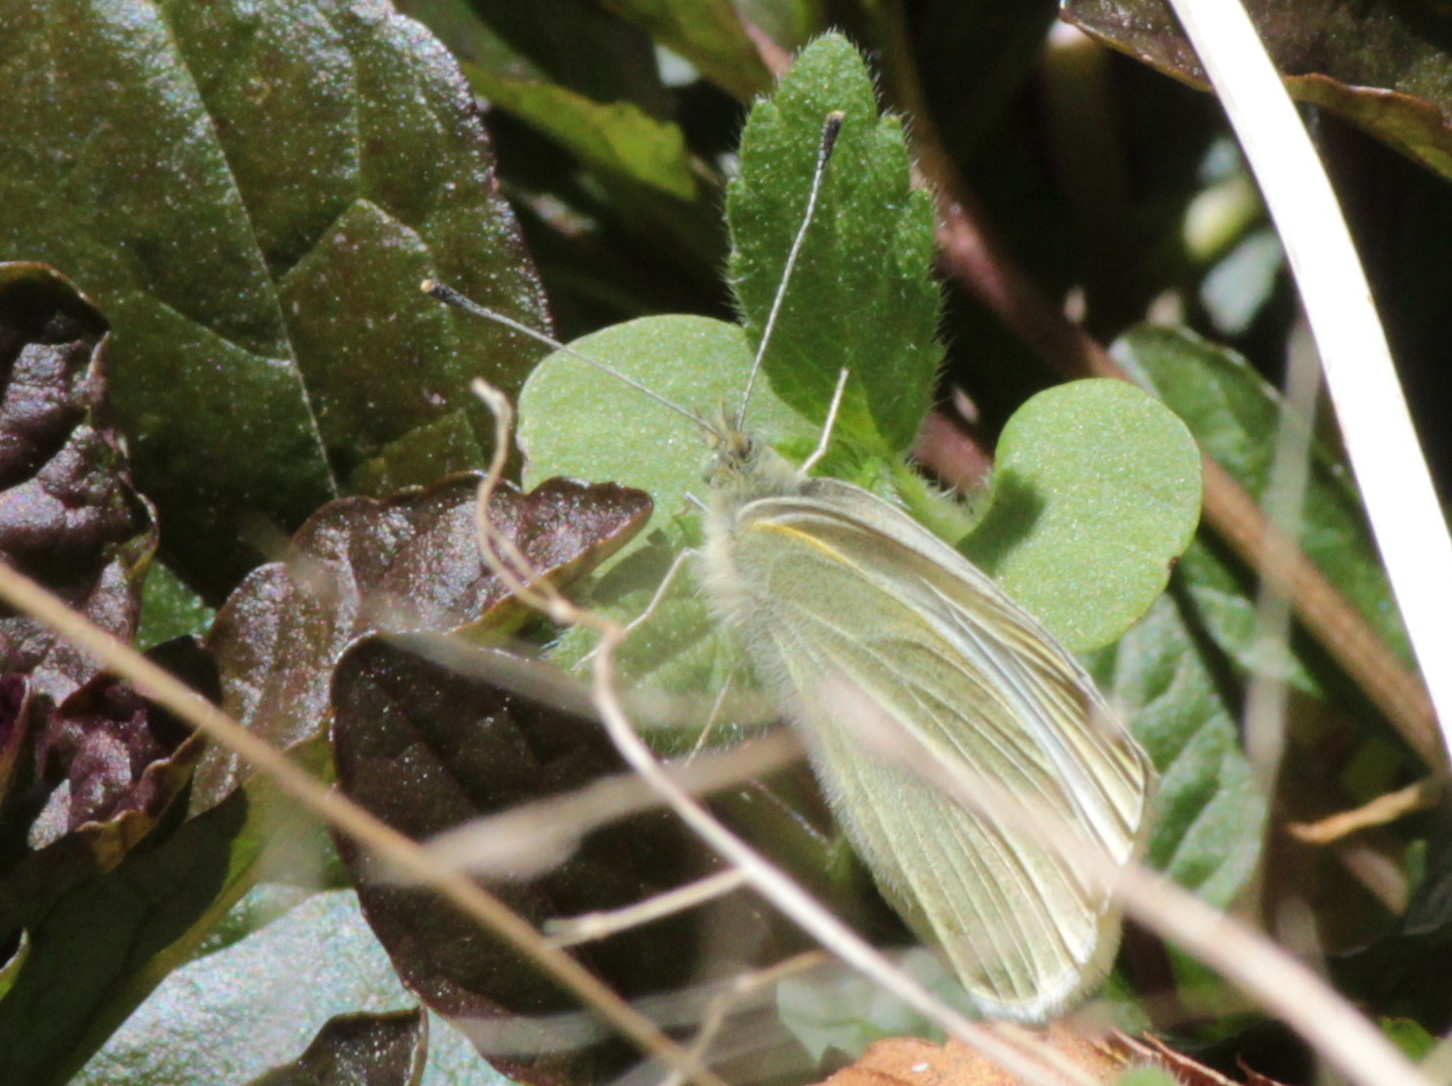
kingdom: Animalia
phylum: Arthropoda
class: Insecta
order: Lepidoptera
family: Pieridae
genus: Pieris
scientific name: Pieris rapae
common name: Small white
